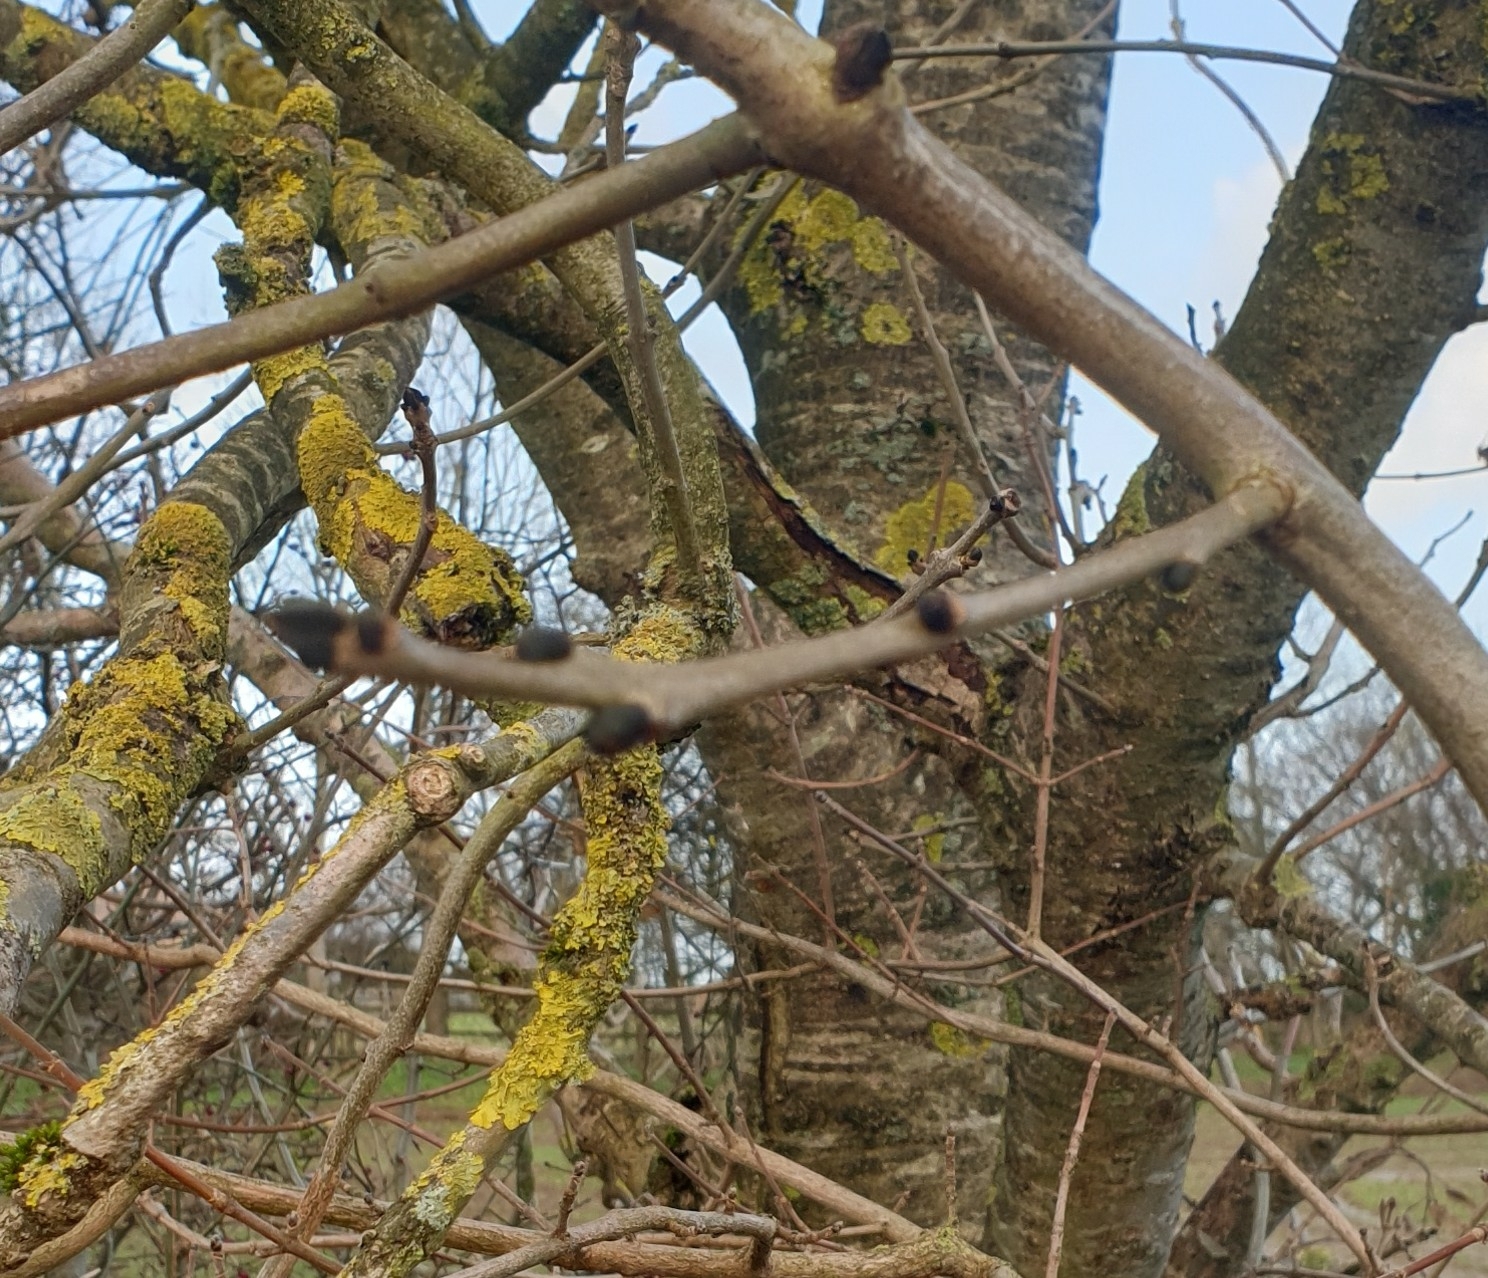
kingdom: Plantae
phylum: Tracheophyta
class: Magnoliopsida
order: Lamiales
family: Oleaceae
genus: Fraxinus
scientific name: Fraxinus excelsior
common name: European ash
